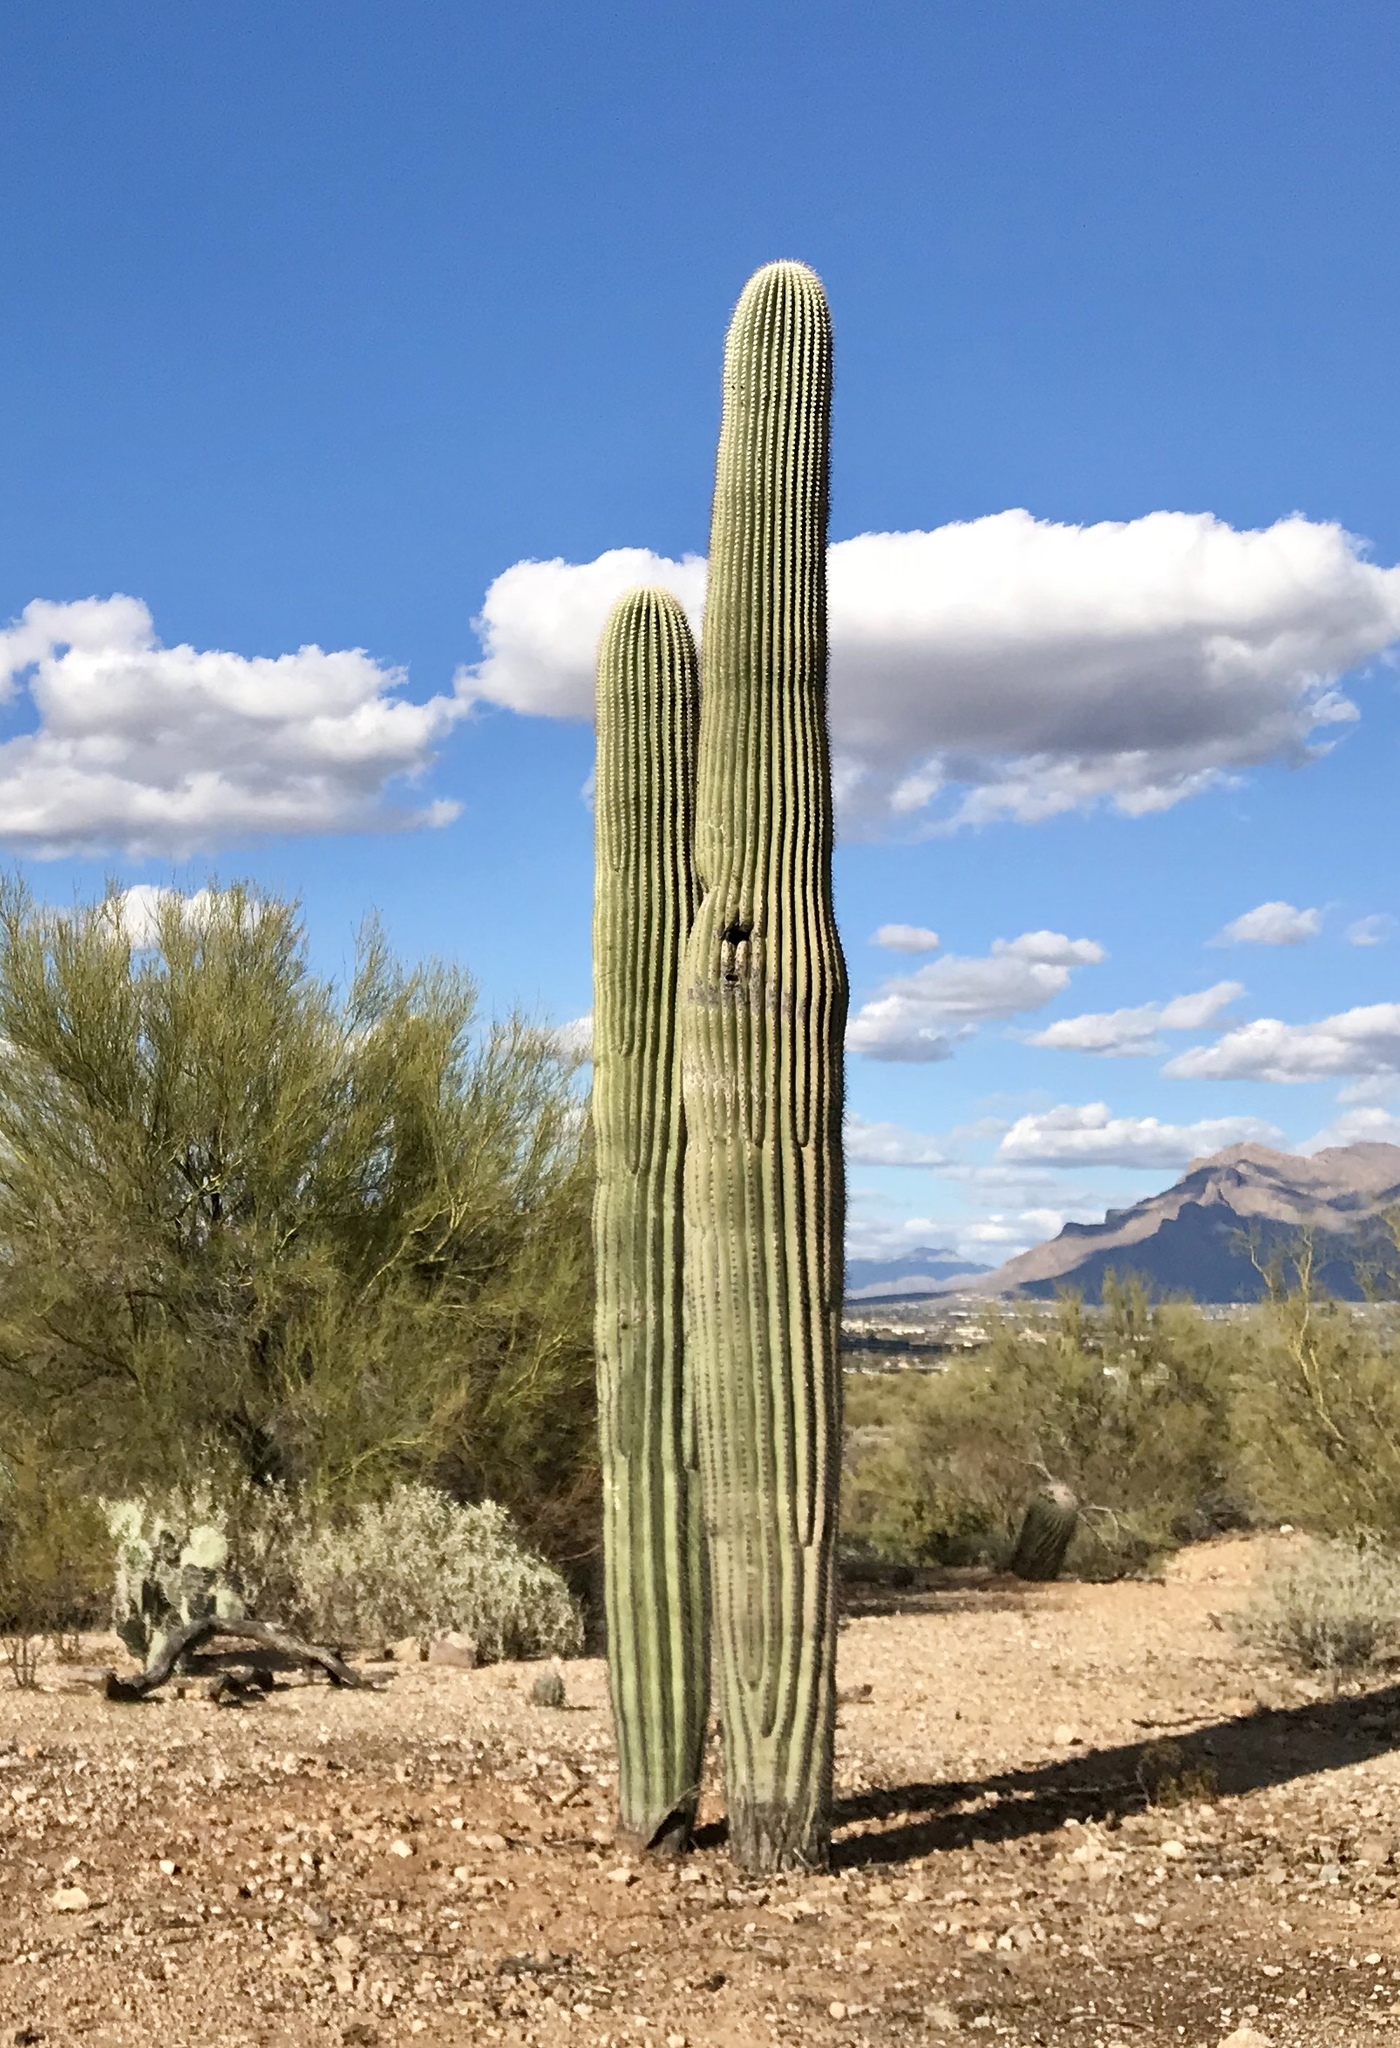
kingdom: Plantae
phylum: Tracheophyta
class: Magnoliopsida
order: Caryophyllales
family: Cactaceae
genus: Carnegiea
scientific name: Carnegiea gigantea
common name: Saguaro
